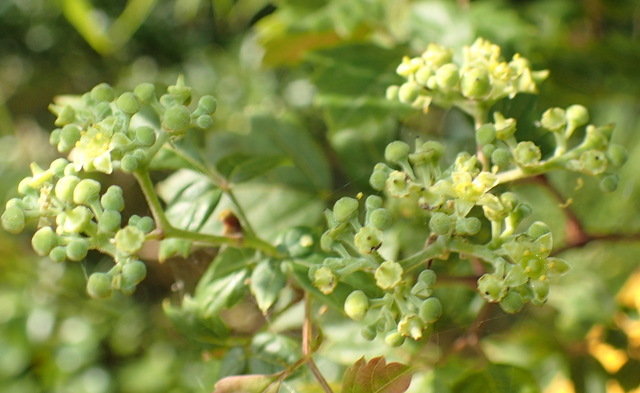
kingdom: Plantae
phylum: Tracheophyta
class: Magnoliopsida
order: Vitales
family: Vitaceae
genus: Nekemias
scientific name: Nekemias arborea
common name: Peppervine
